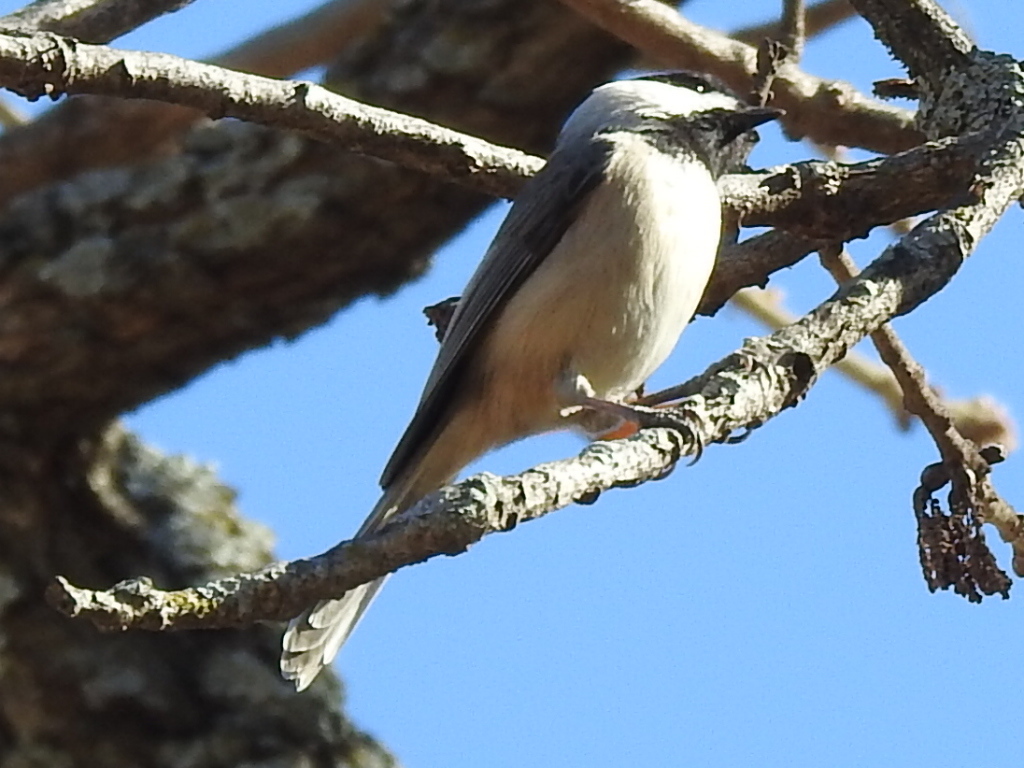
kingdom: Animalia
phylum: Chordata
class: Aves
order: Passeriformes
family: Paridae
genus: Poecile
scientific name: Poecile carolinensis
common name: Carolina chickadee
